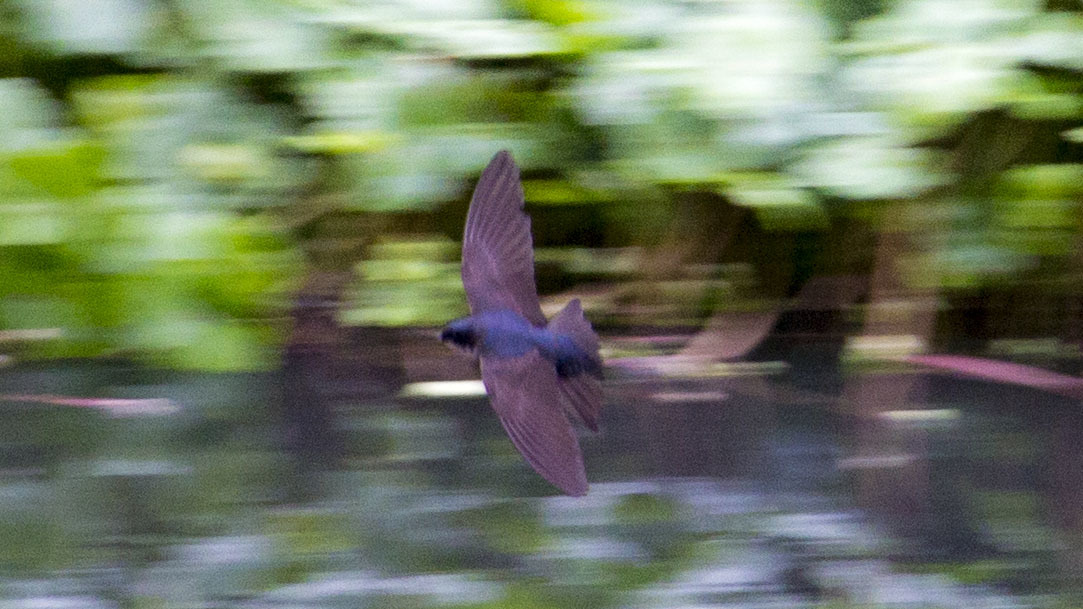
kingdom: Animalia
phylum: Chordata
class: Aves
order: Passeriformes
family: Hirundinidae
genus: Notiochelidon
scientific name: Notiochelidon murina
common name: Brown-bellied swallow
